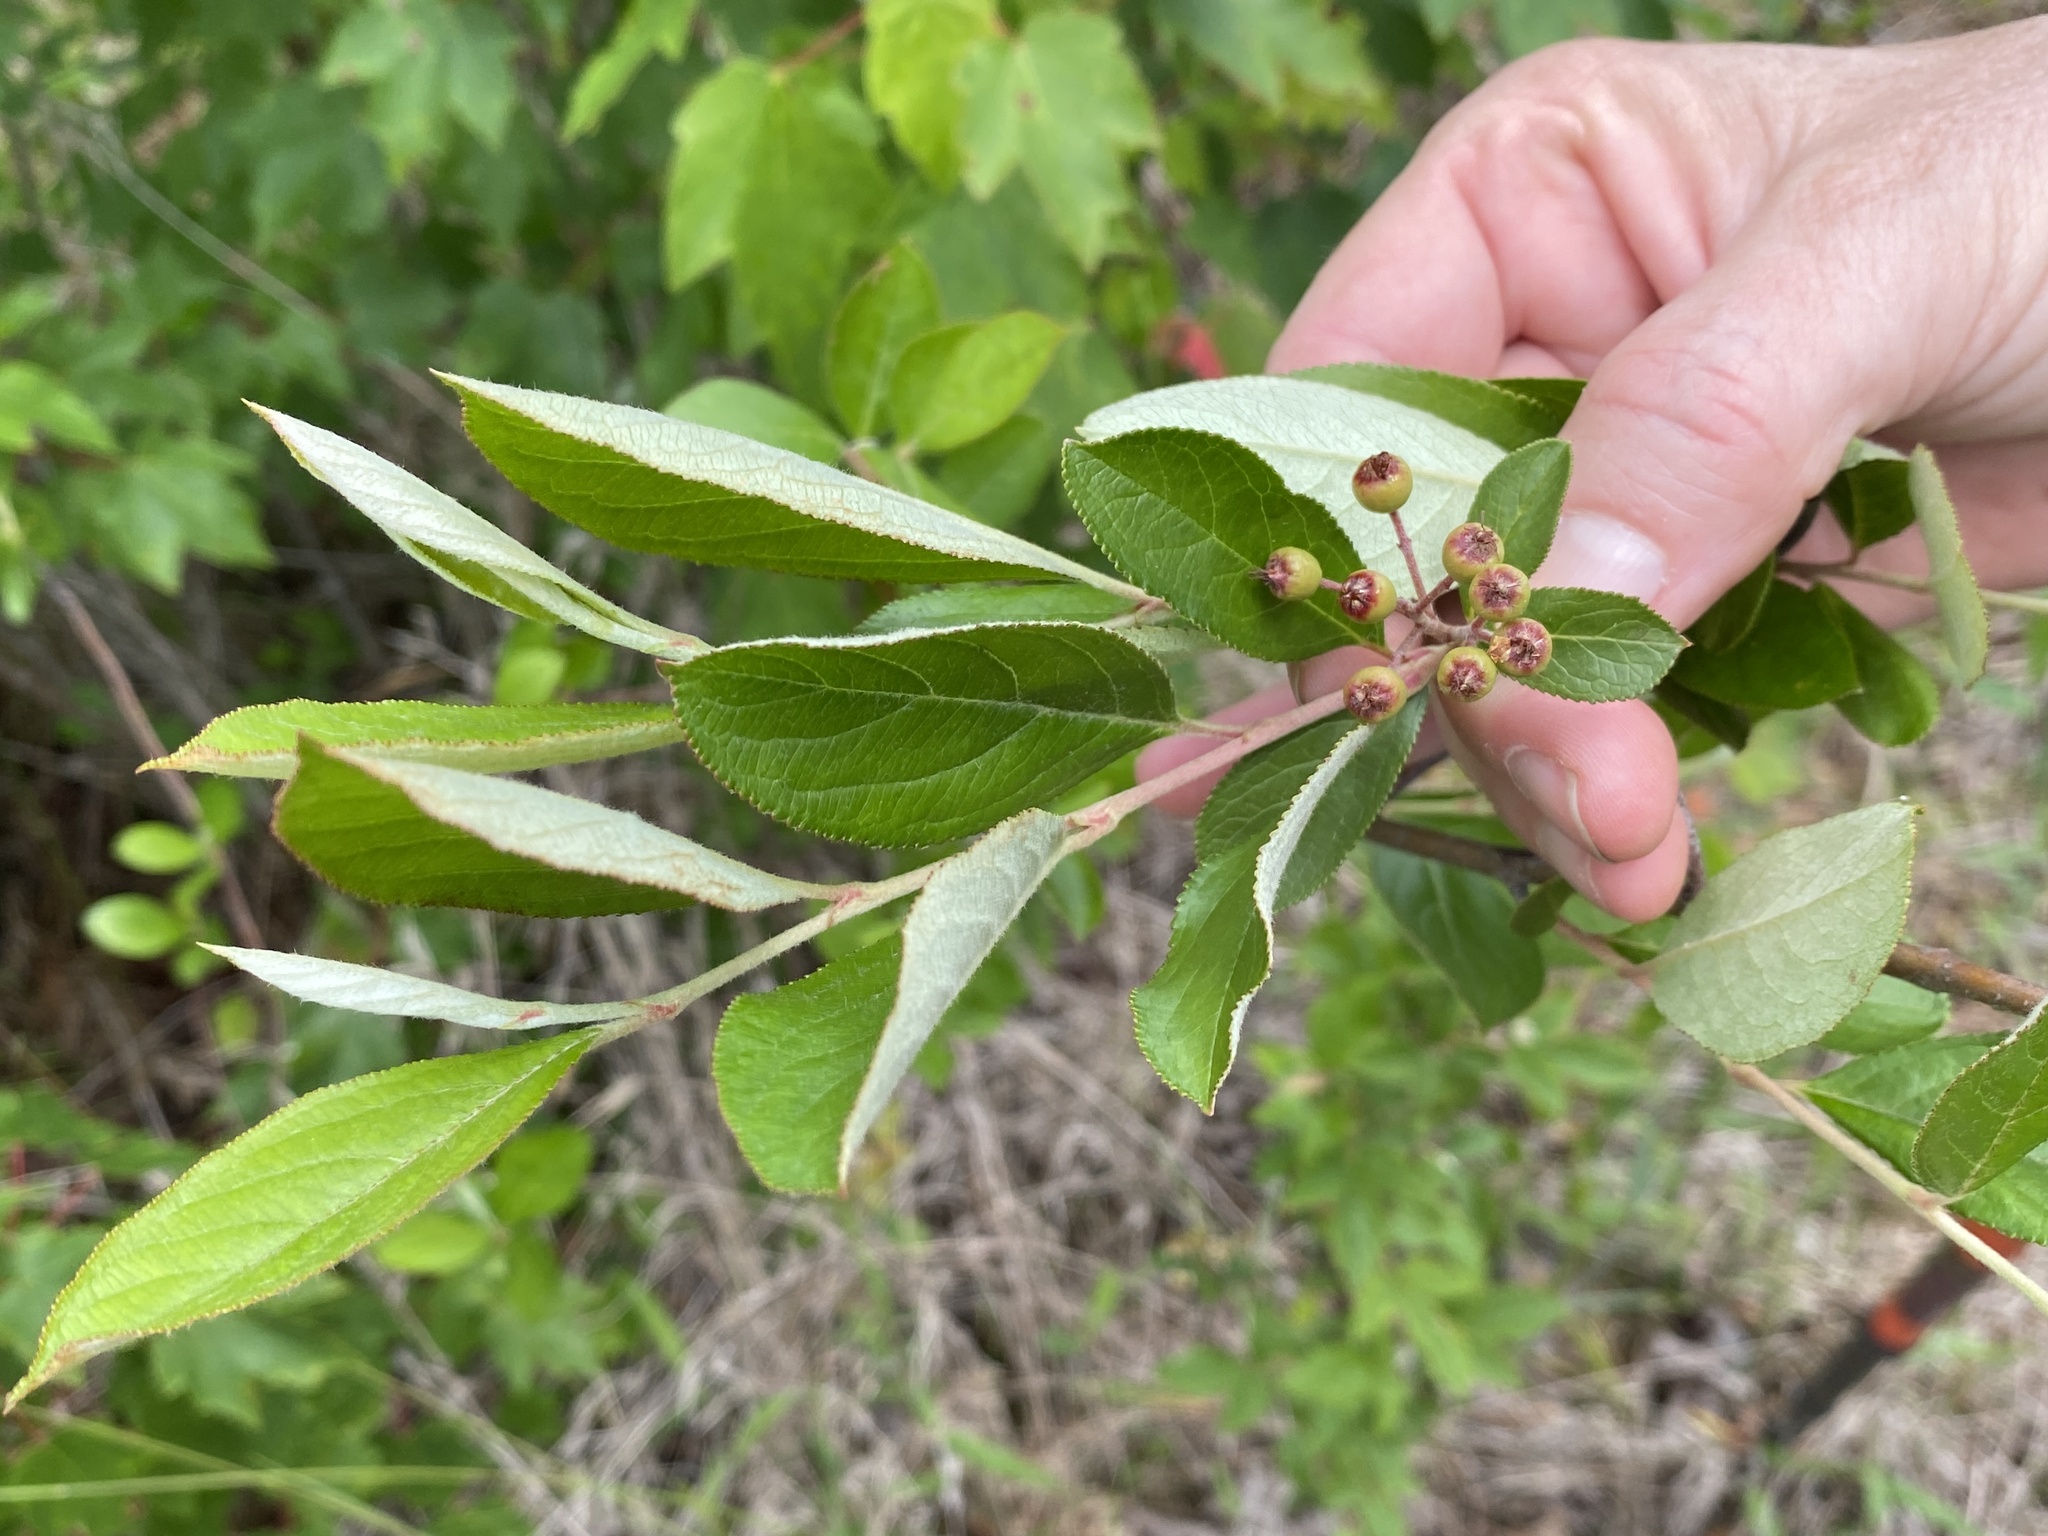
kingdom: Plantae
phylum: Tracheophyta
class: Magnoliopsida
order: Rosales
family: Rosaceae
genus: Aronia
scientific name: Aronia arbutifolia
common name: Red chokeberry
